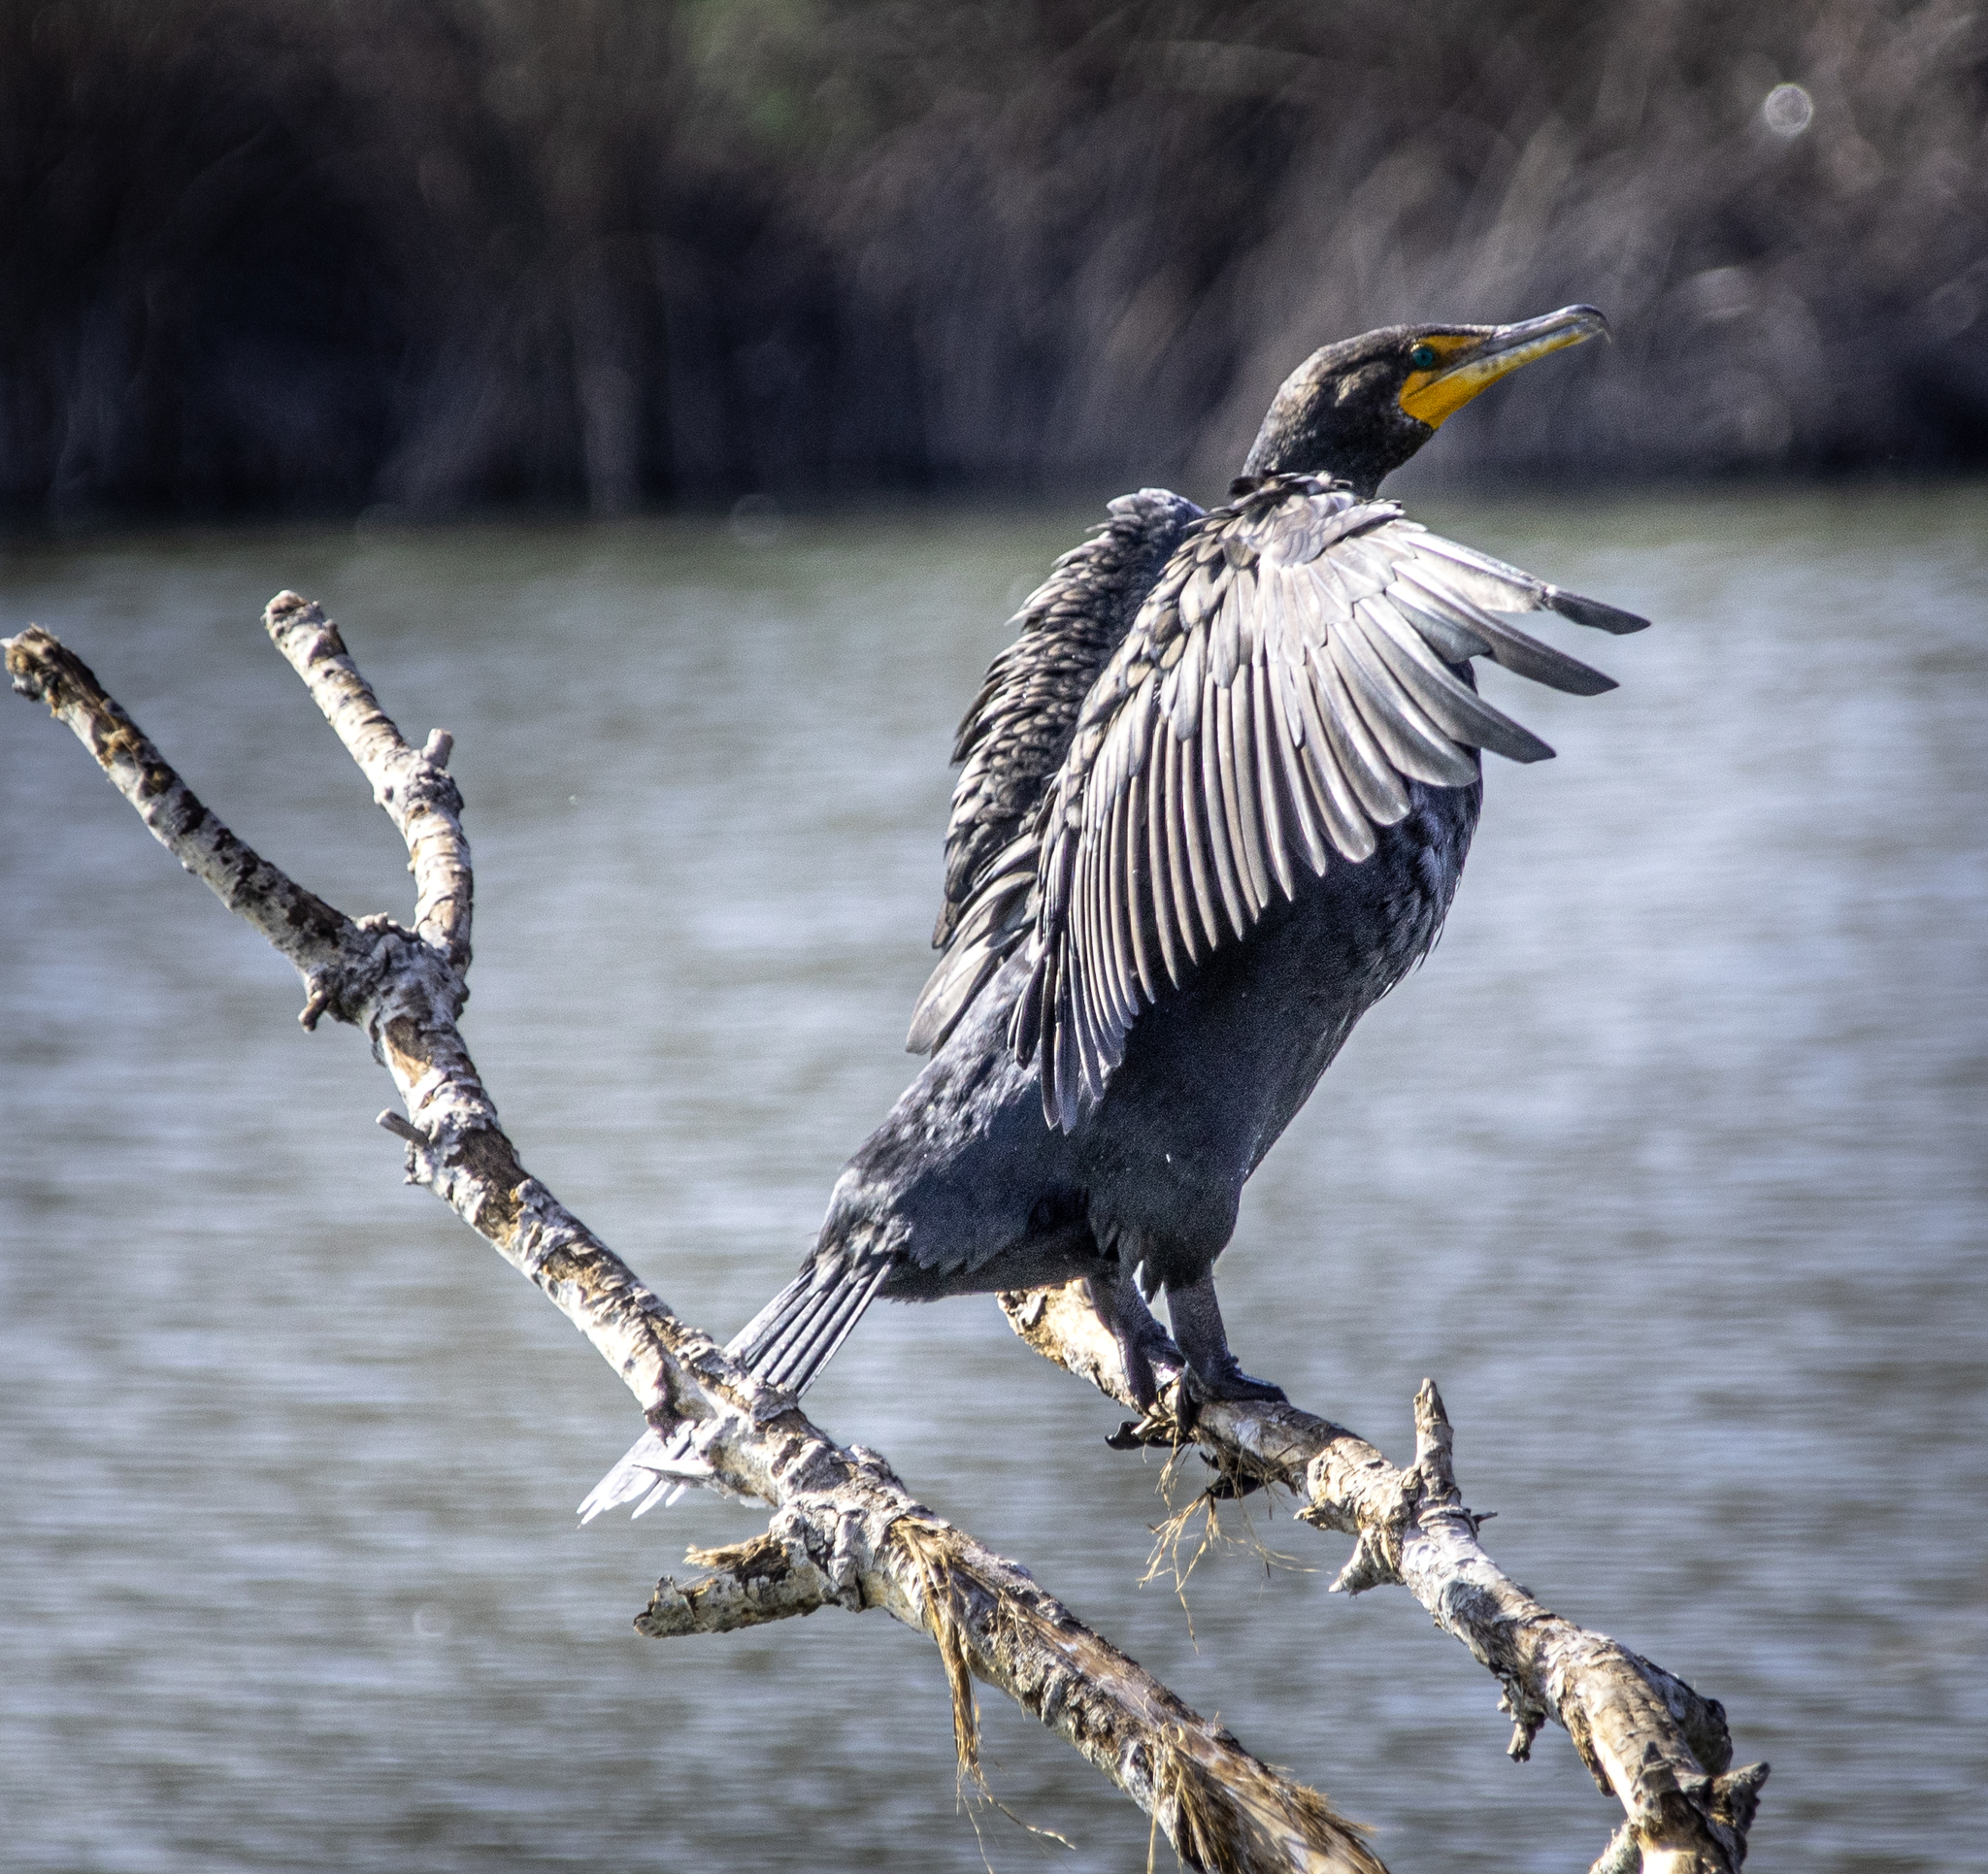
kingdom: Animalia
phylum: Chordata
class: Aves
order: Suliformes
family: Phalacrocoracidae
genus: Phalacrocorax
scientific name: Phalacrocorax auritus
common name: Double-crested cormorant
